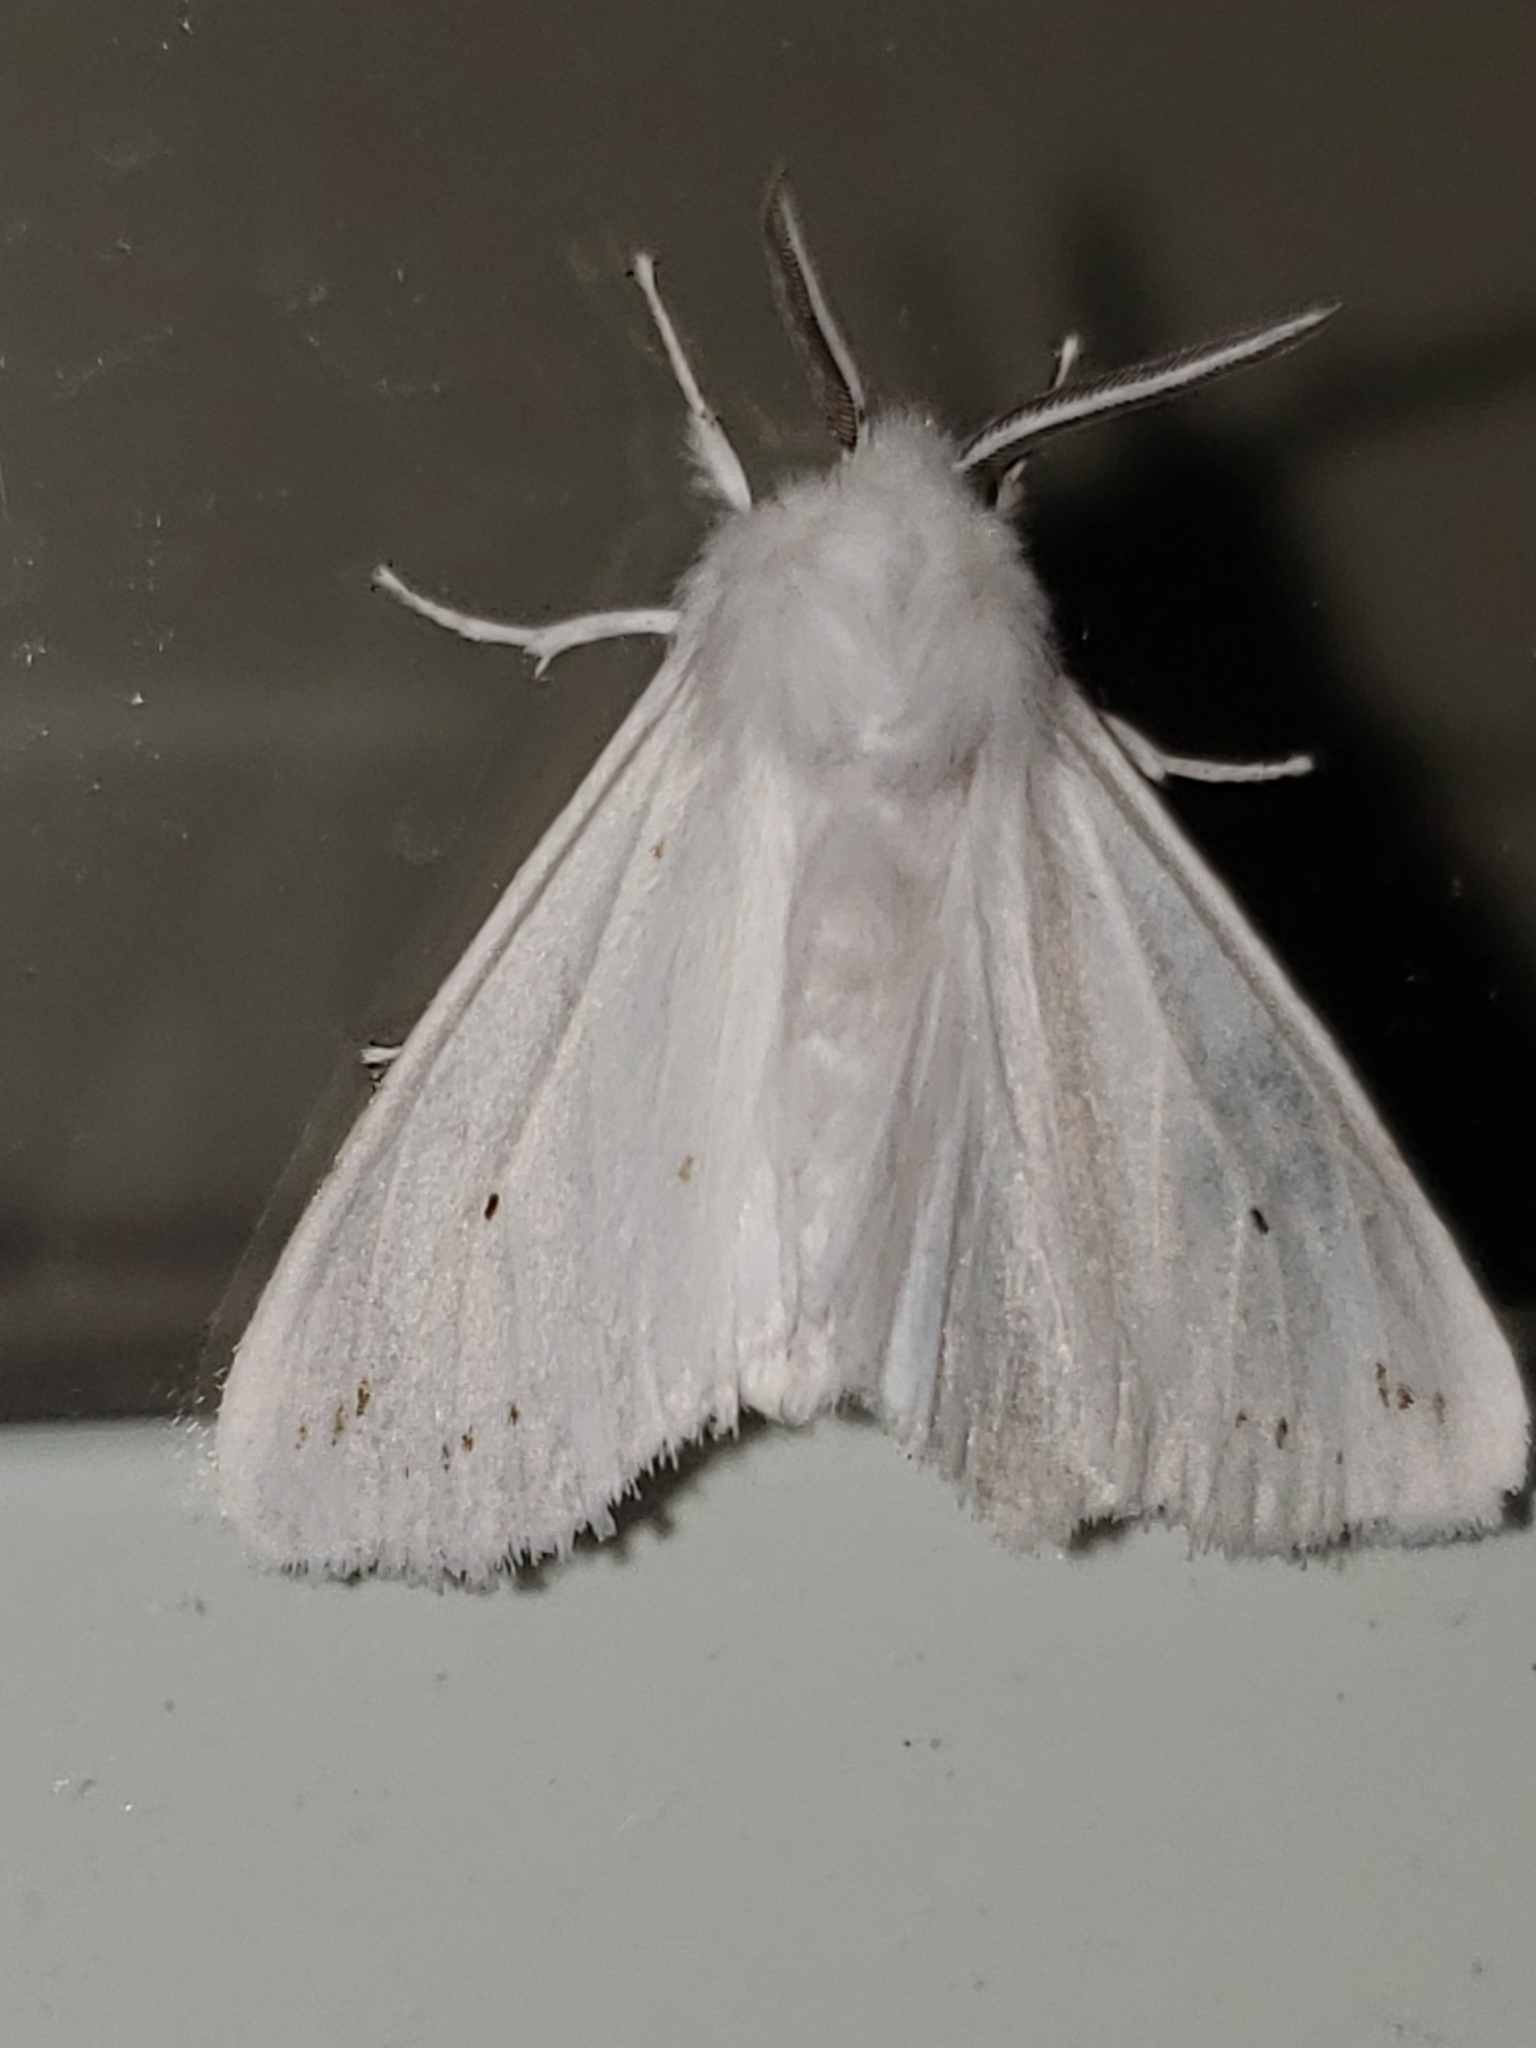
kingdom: Animalia
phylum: Arthropoda
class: Insecta
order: Lepidoptera
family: Erebidae
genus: Spilosoma
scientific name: Spilosoma congrua
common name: Agreeable tiger moth
